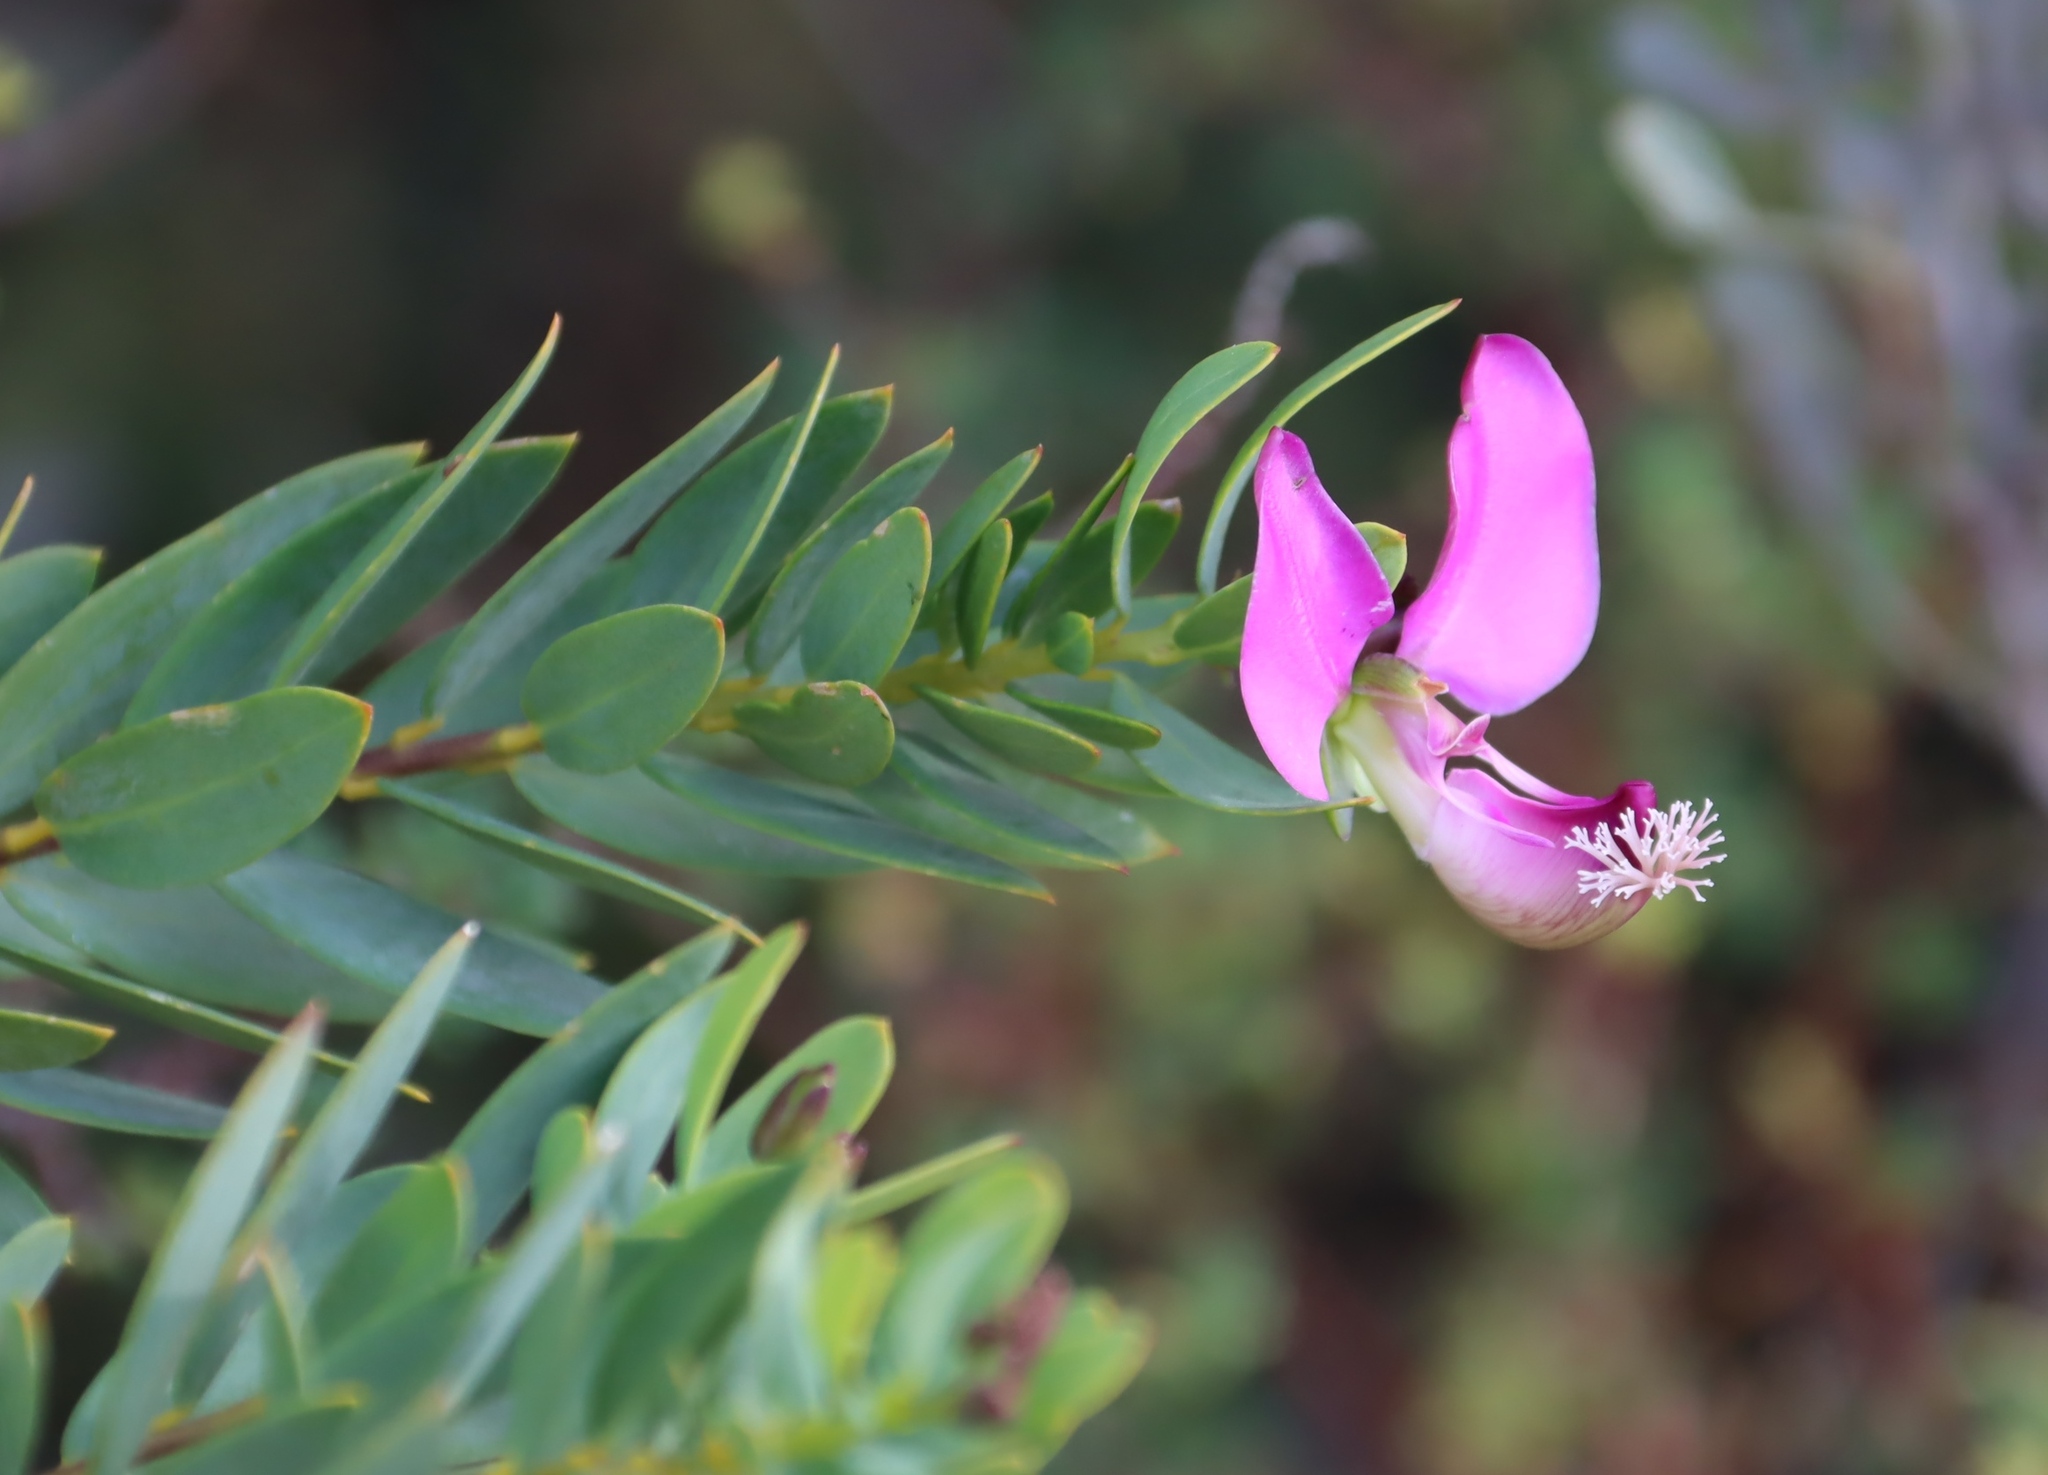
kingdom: Plantae
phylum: Tracheophyta
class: Magnoliopsida
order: Fabales
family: Polygalaceae
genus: Polygala
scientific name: Polygala myrtifolia
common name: Myrtle-leaf milkwort
